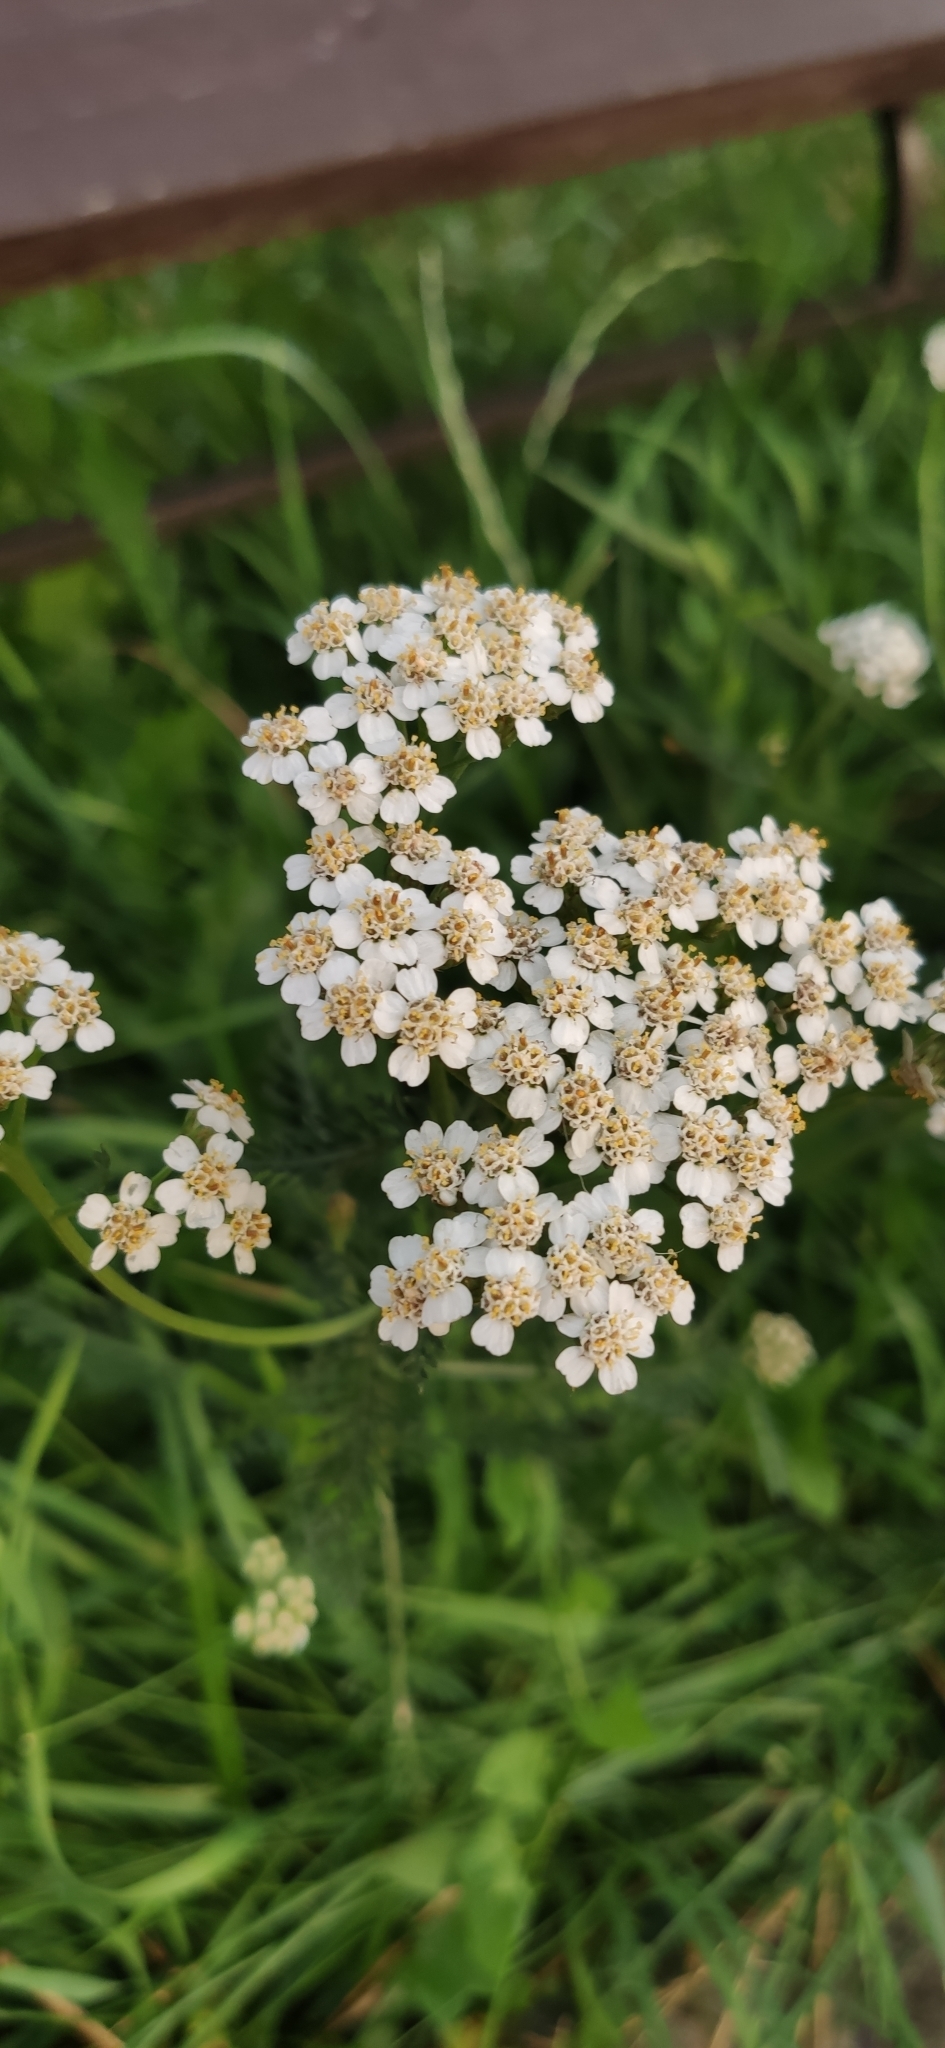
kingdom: Plantae
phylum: Tracheophyta
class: Magnoliopsida
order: Asterales
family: Asteraceae
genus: Achillea
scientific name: Achillea millefolium
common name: Yarrow
